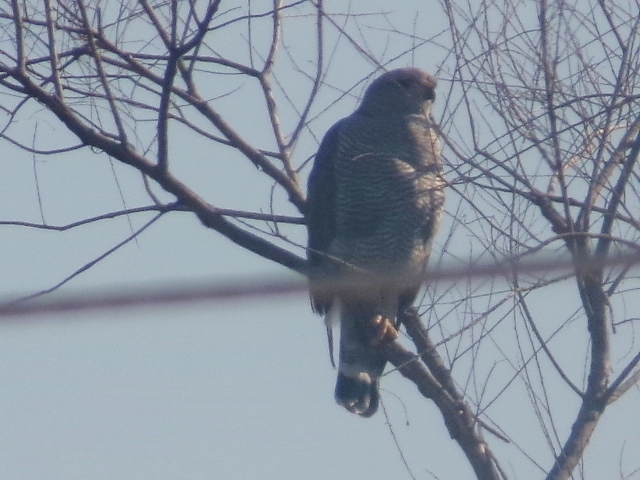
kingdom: Animalia
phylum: Chordata
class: Aves
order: Accipitriformes
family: Accipitridae
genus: Buteo
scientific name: Buteo nitidus
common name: Grey-lined hawk
